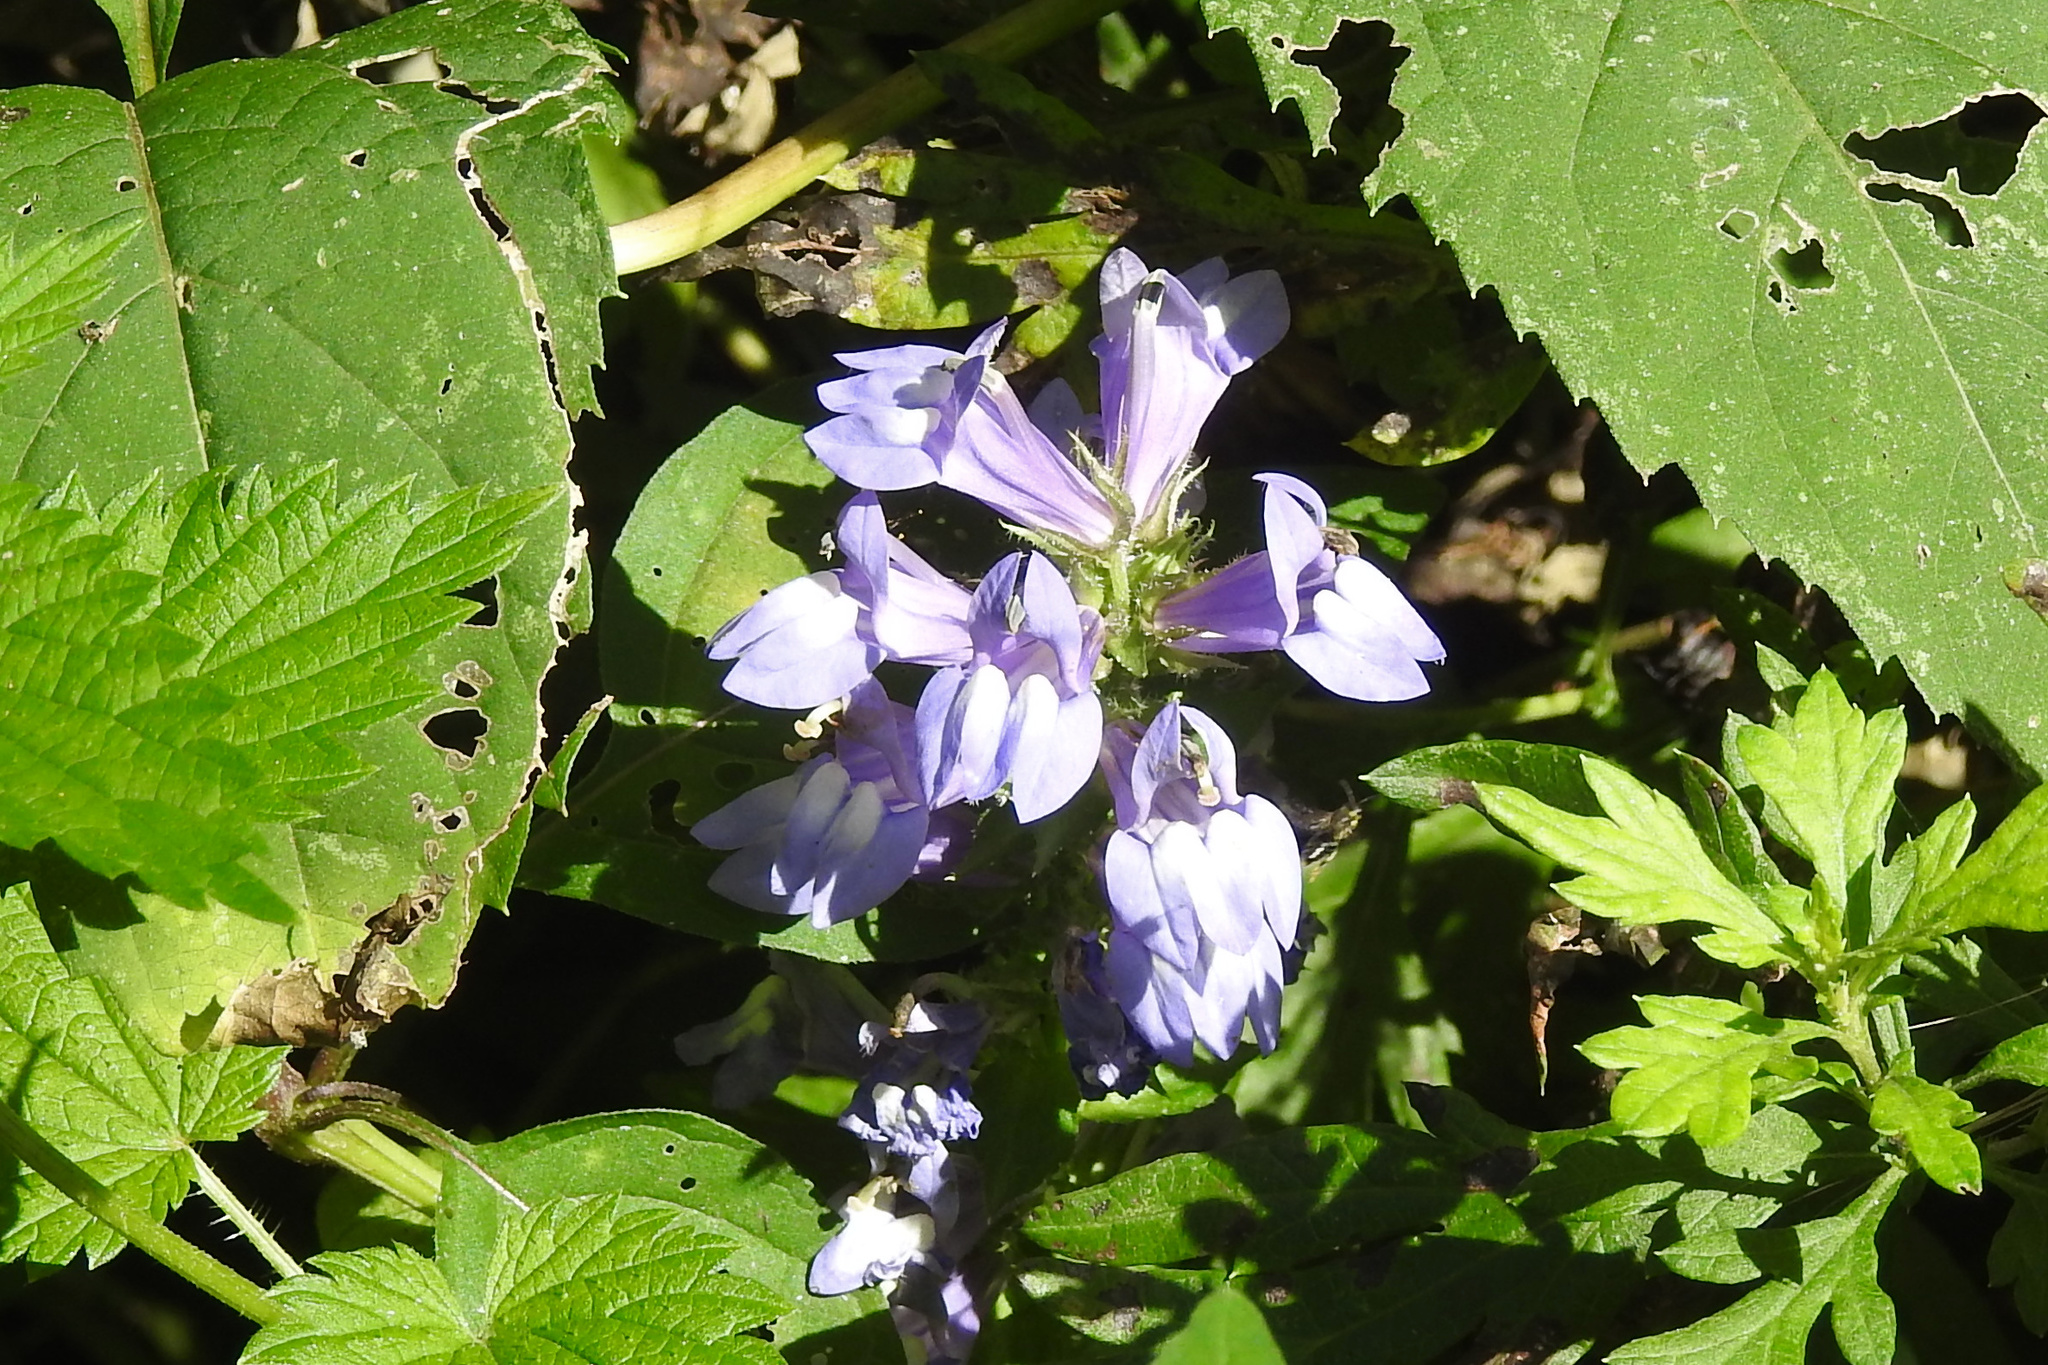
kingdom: Plantae
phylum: Tracheophyta
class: Magnoliopsida
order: Asterales
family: Campanulaceae
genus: Lobelia
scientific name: Lobelia siphilitica
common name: Great lobelia
